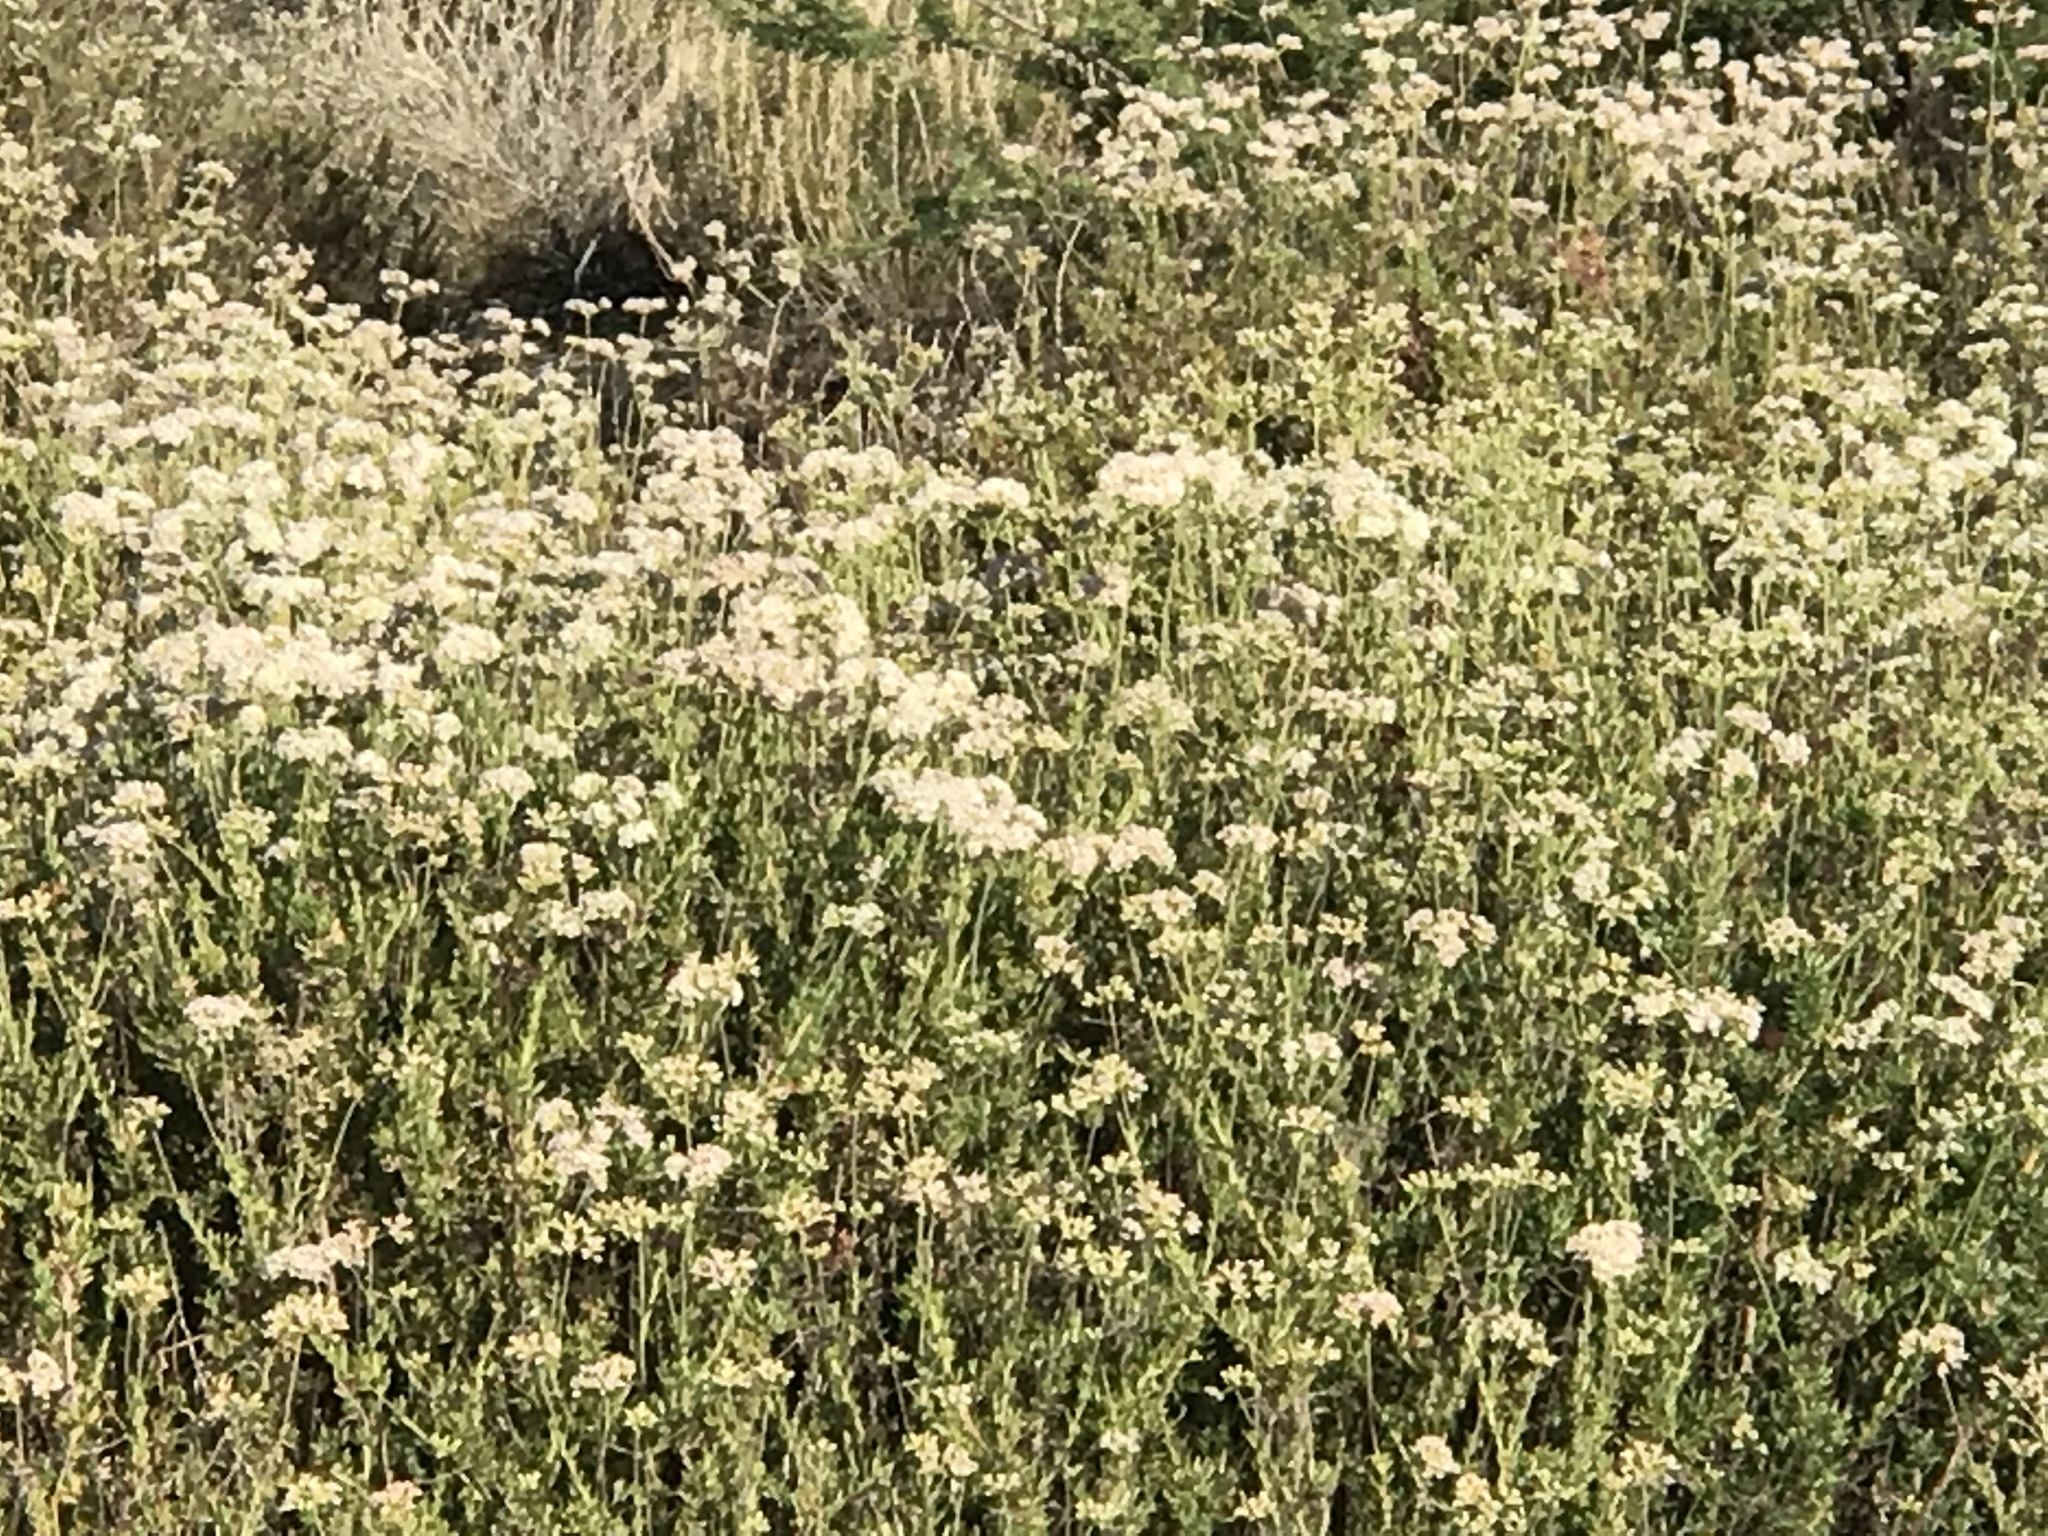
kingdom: Plantae
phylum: Tracheophyta
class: Magnoliopsida
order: Caryophyllales
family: Polygonaceae
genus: Eriogonum
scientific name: Eriogonum fasciculatum
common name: California wild buckwheat
